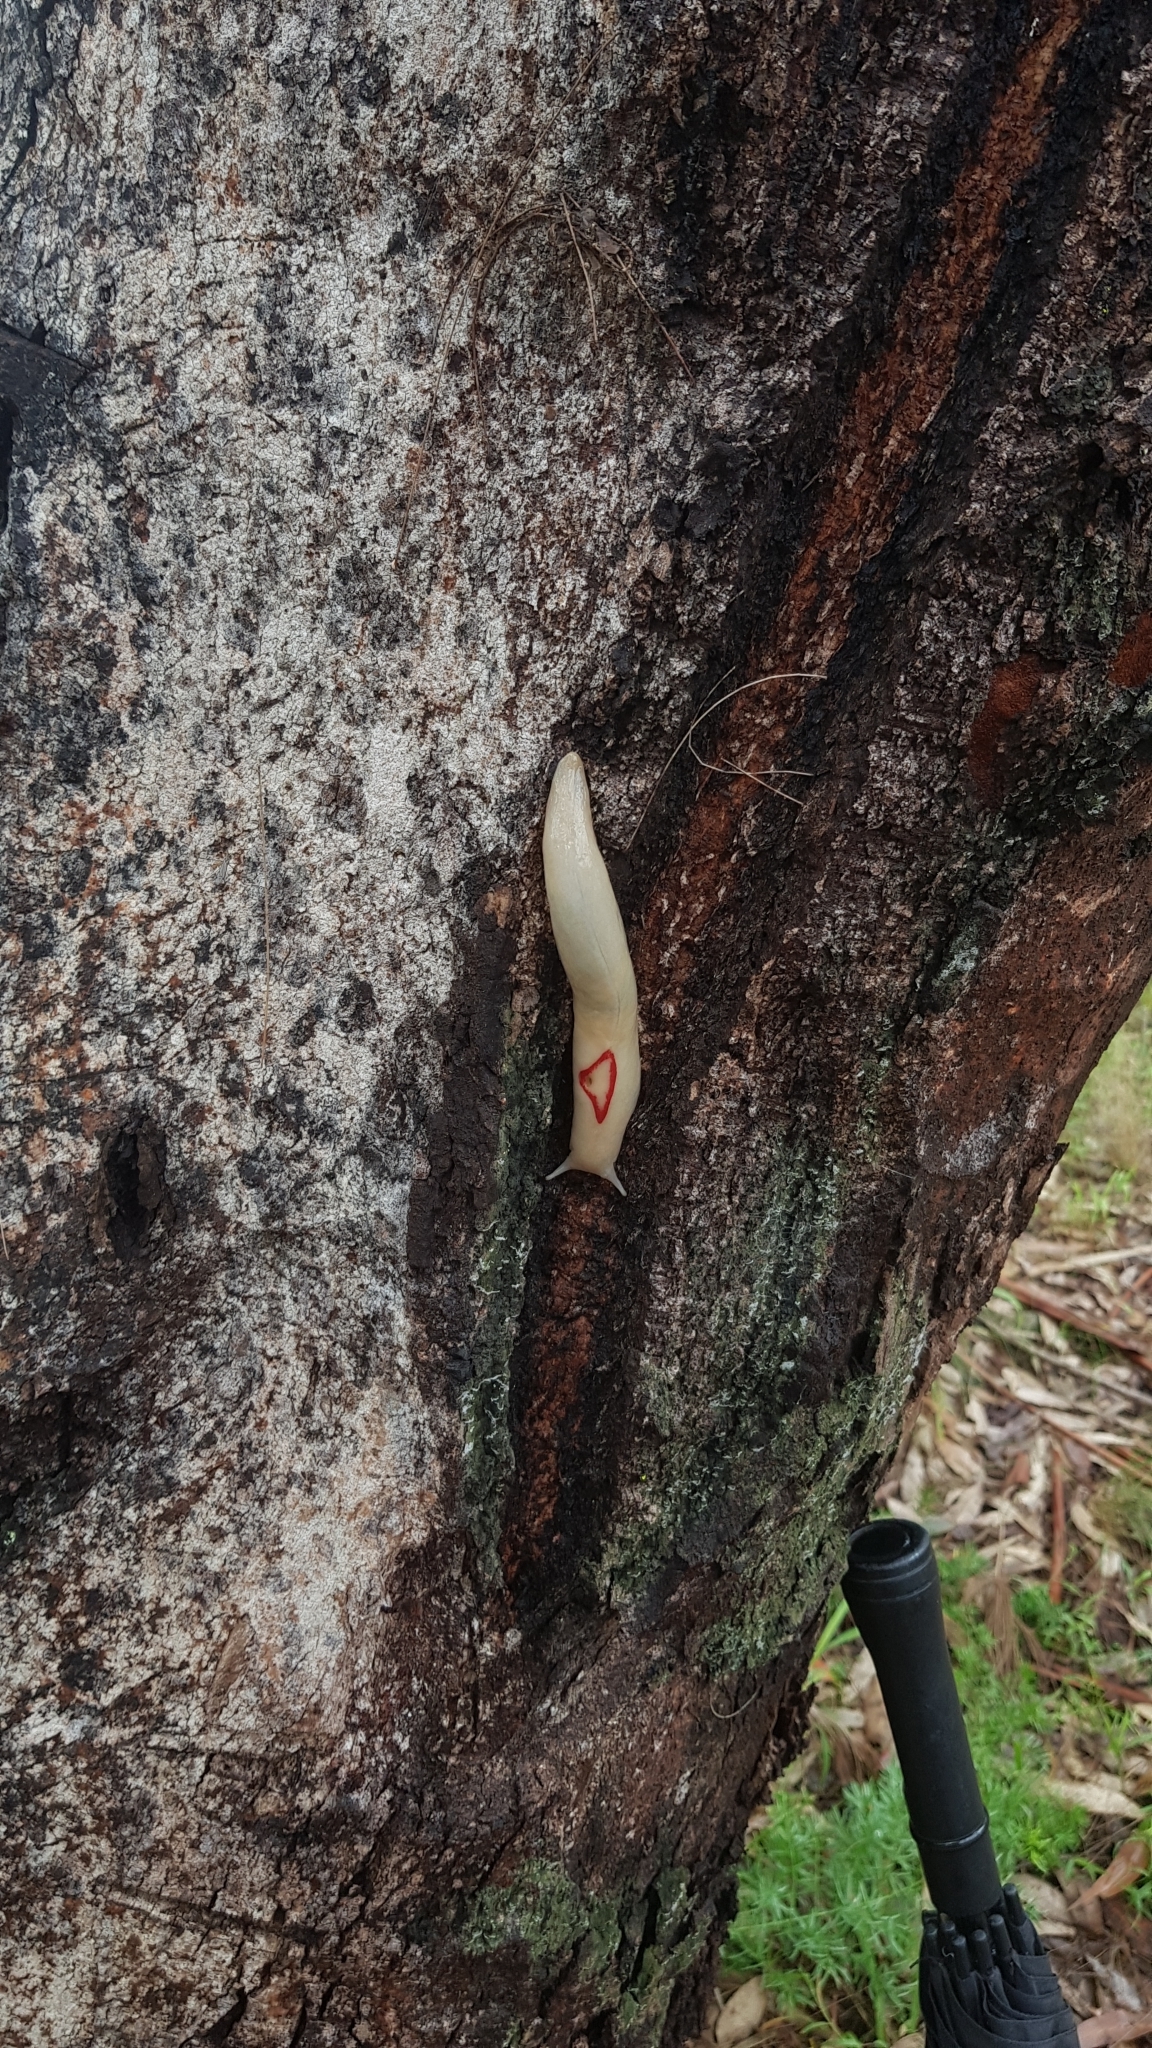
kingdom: Animalia
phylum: Mollusca
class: Gastropoda
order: Stylommatophora
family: Athoracophoridae
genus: Triboniophorus
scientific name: Triboniophorus graeffei
